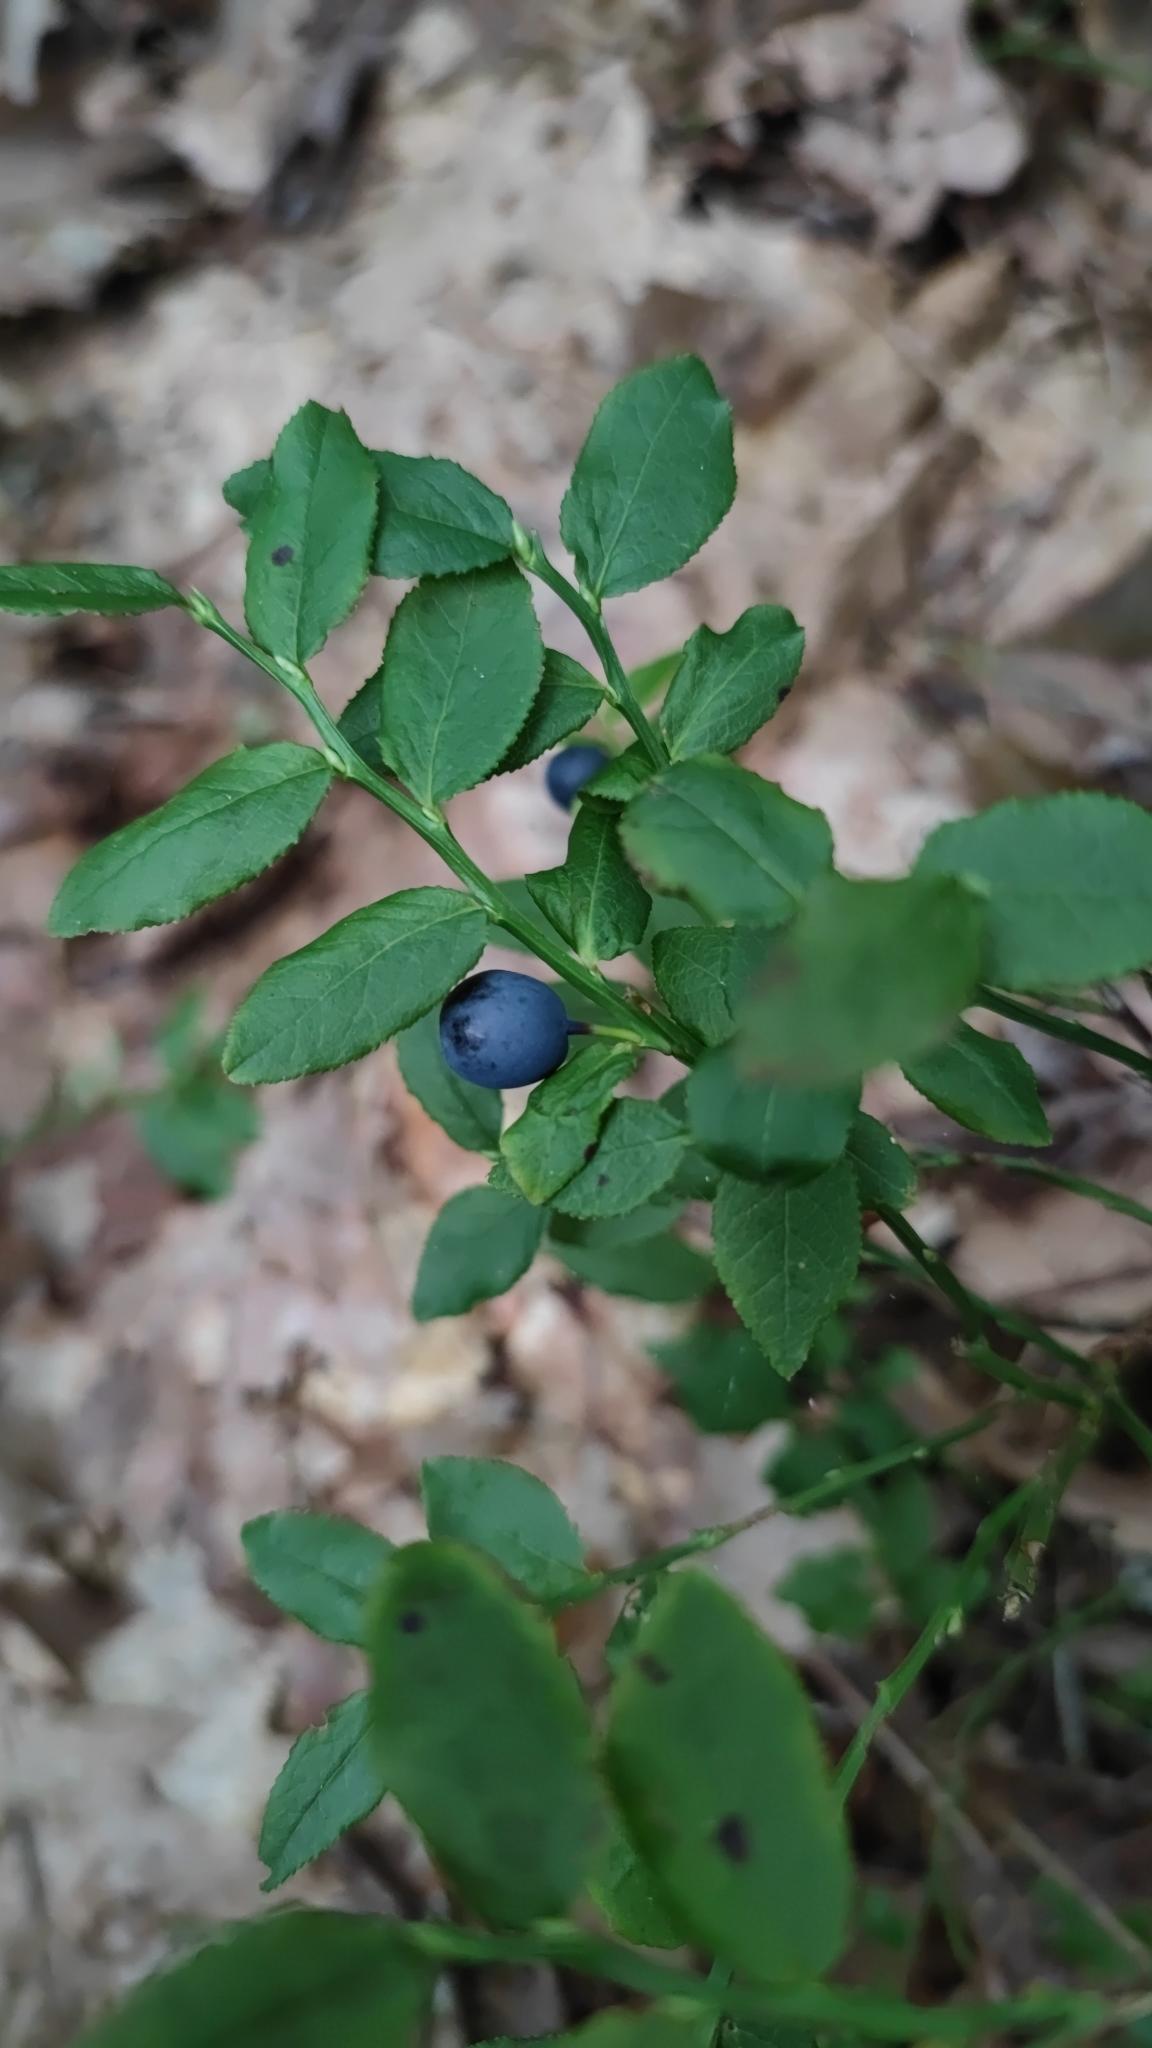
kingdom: Plantae
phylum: Tracheophyta
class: Magnoliopsida
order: Ericales
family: Ericaceae
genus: Vaccinium
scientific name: Vaccinium myrtillus
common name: Bilberry
